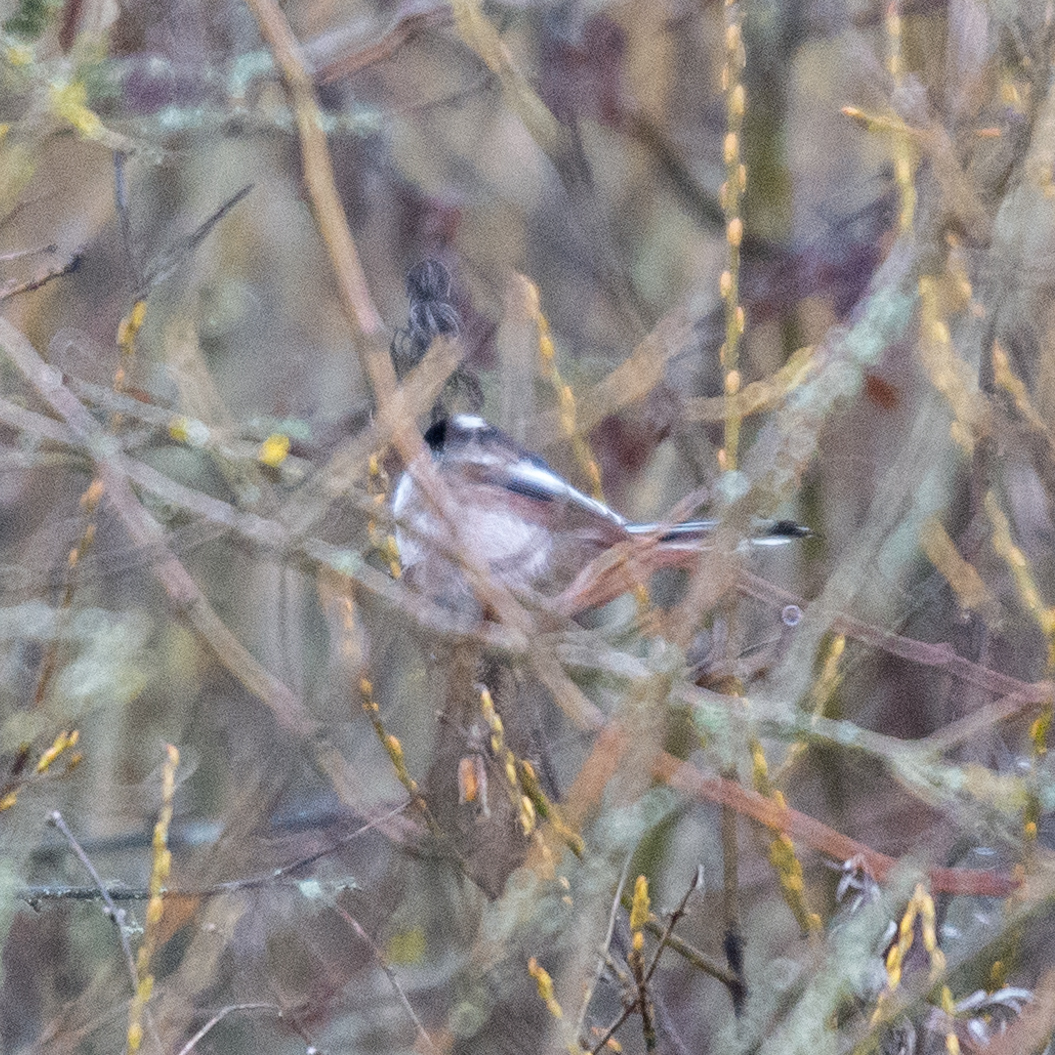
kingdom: Animalia
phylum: Chordata
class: Aves
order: Passeriformes
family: Aegithalidae
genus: Aegithalos
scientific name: Aegithalos caudatus
